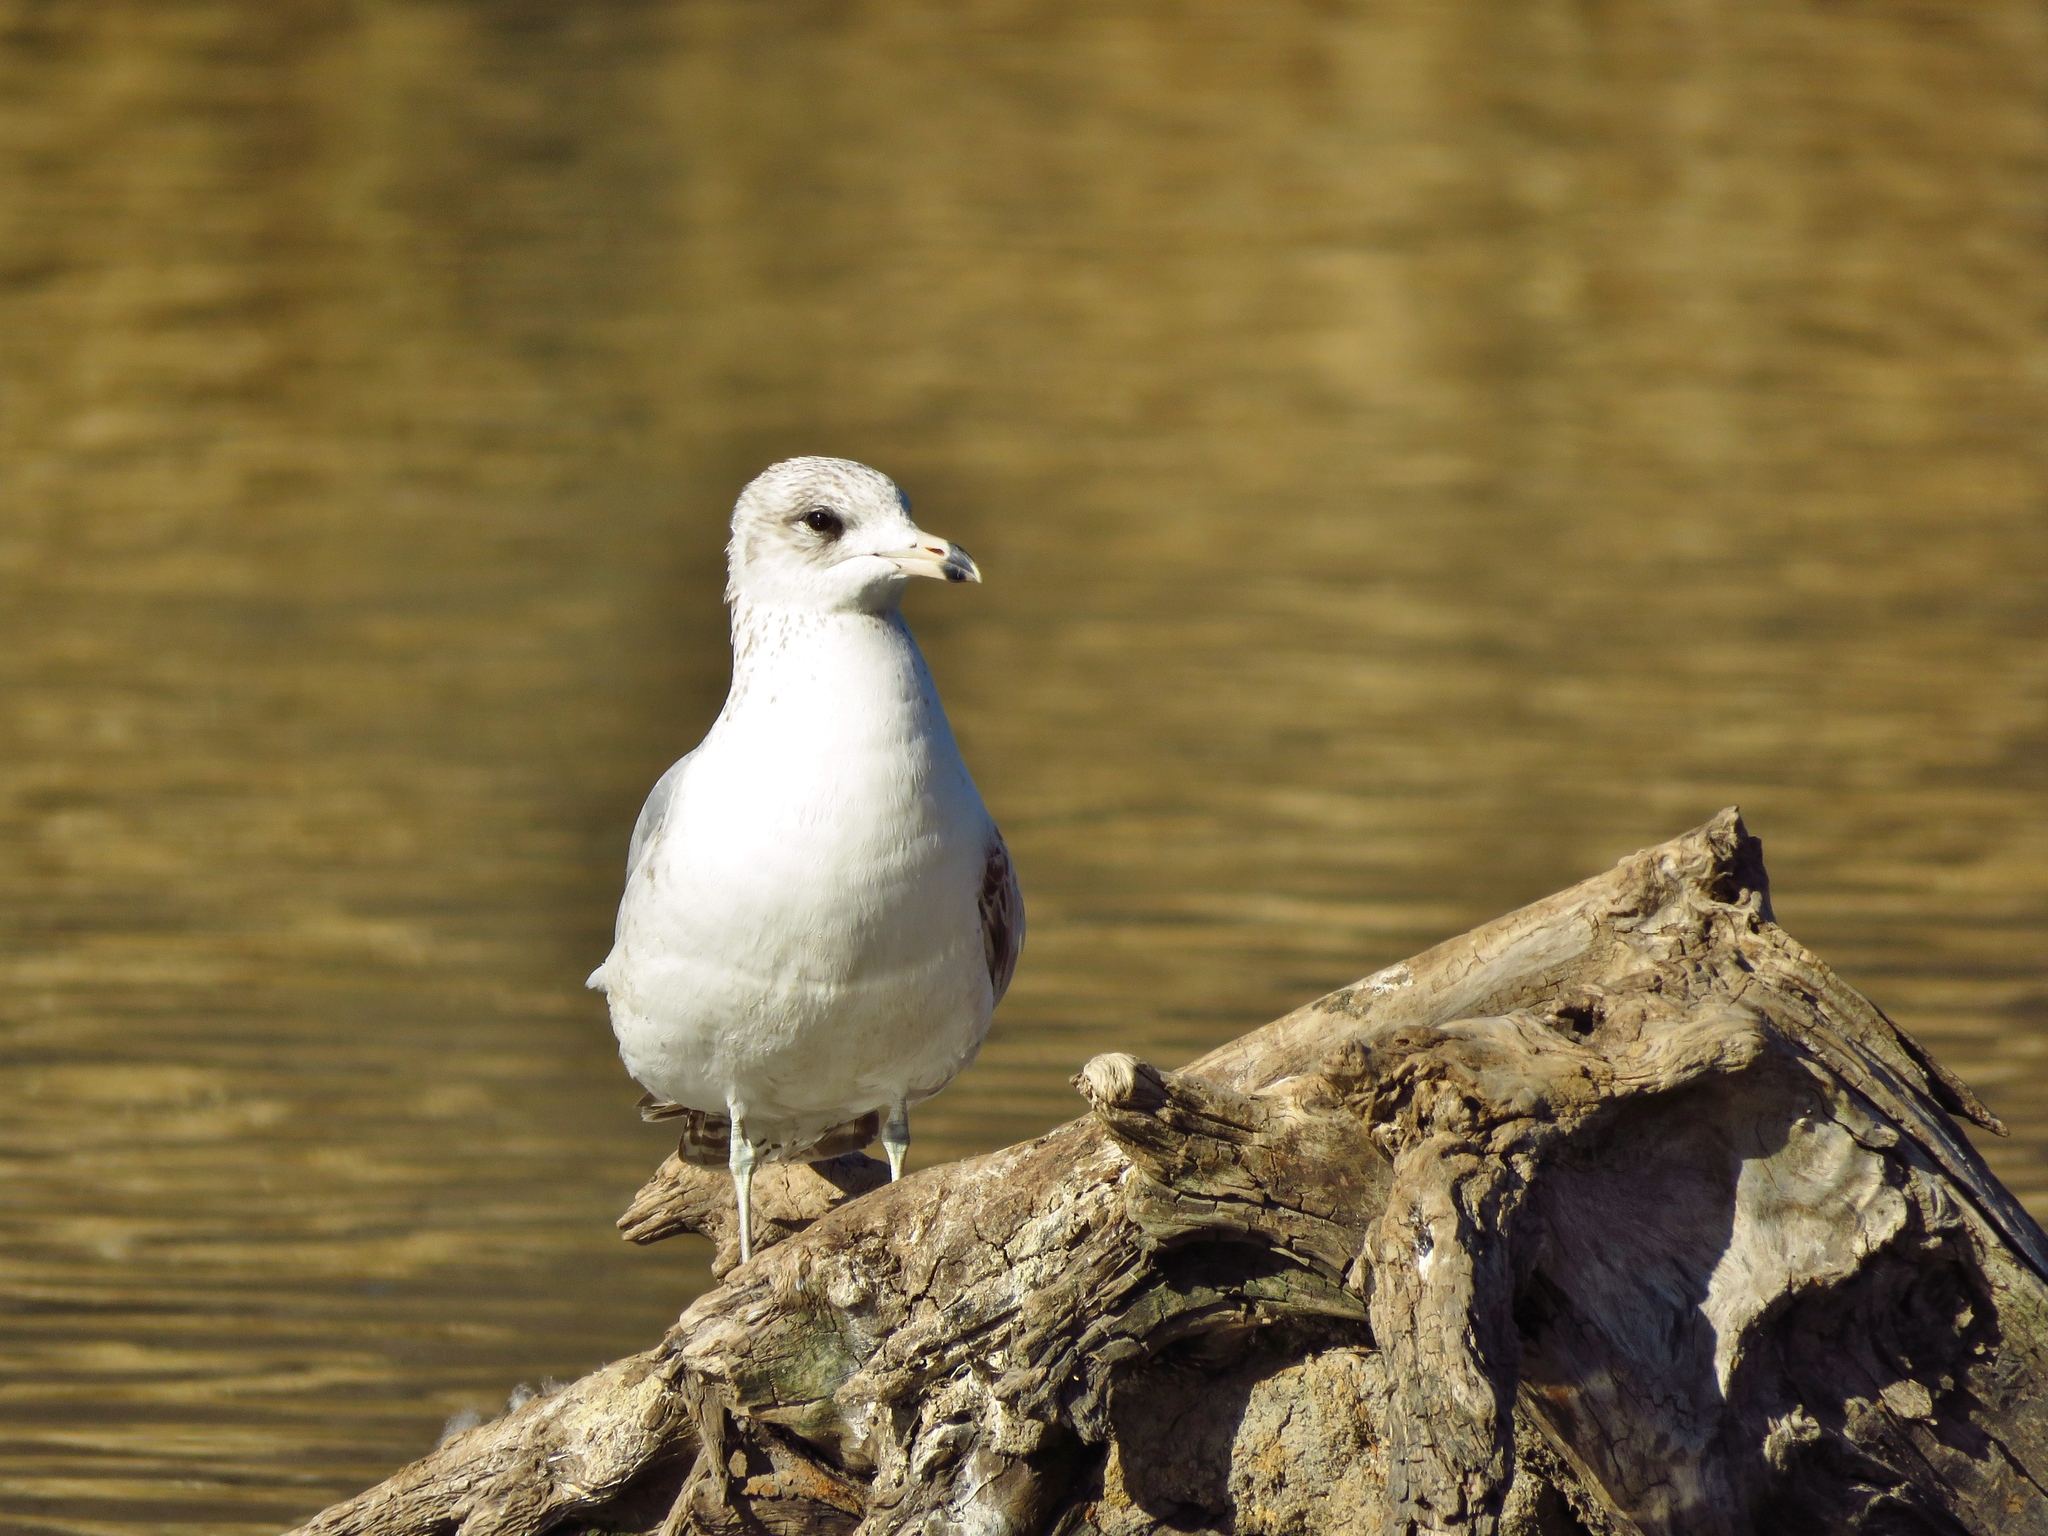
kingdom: Animalia
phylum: Chordata
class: Aves
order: Charadriiformes
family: Laridae
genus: Larus
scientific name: Larus delawarensis
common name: Ring-billed gull
